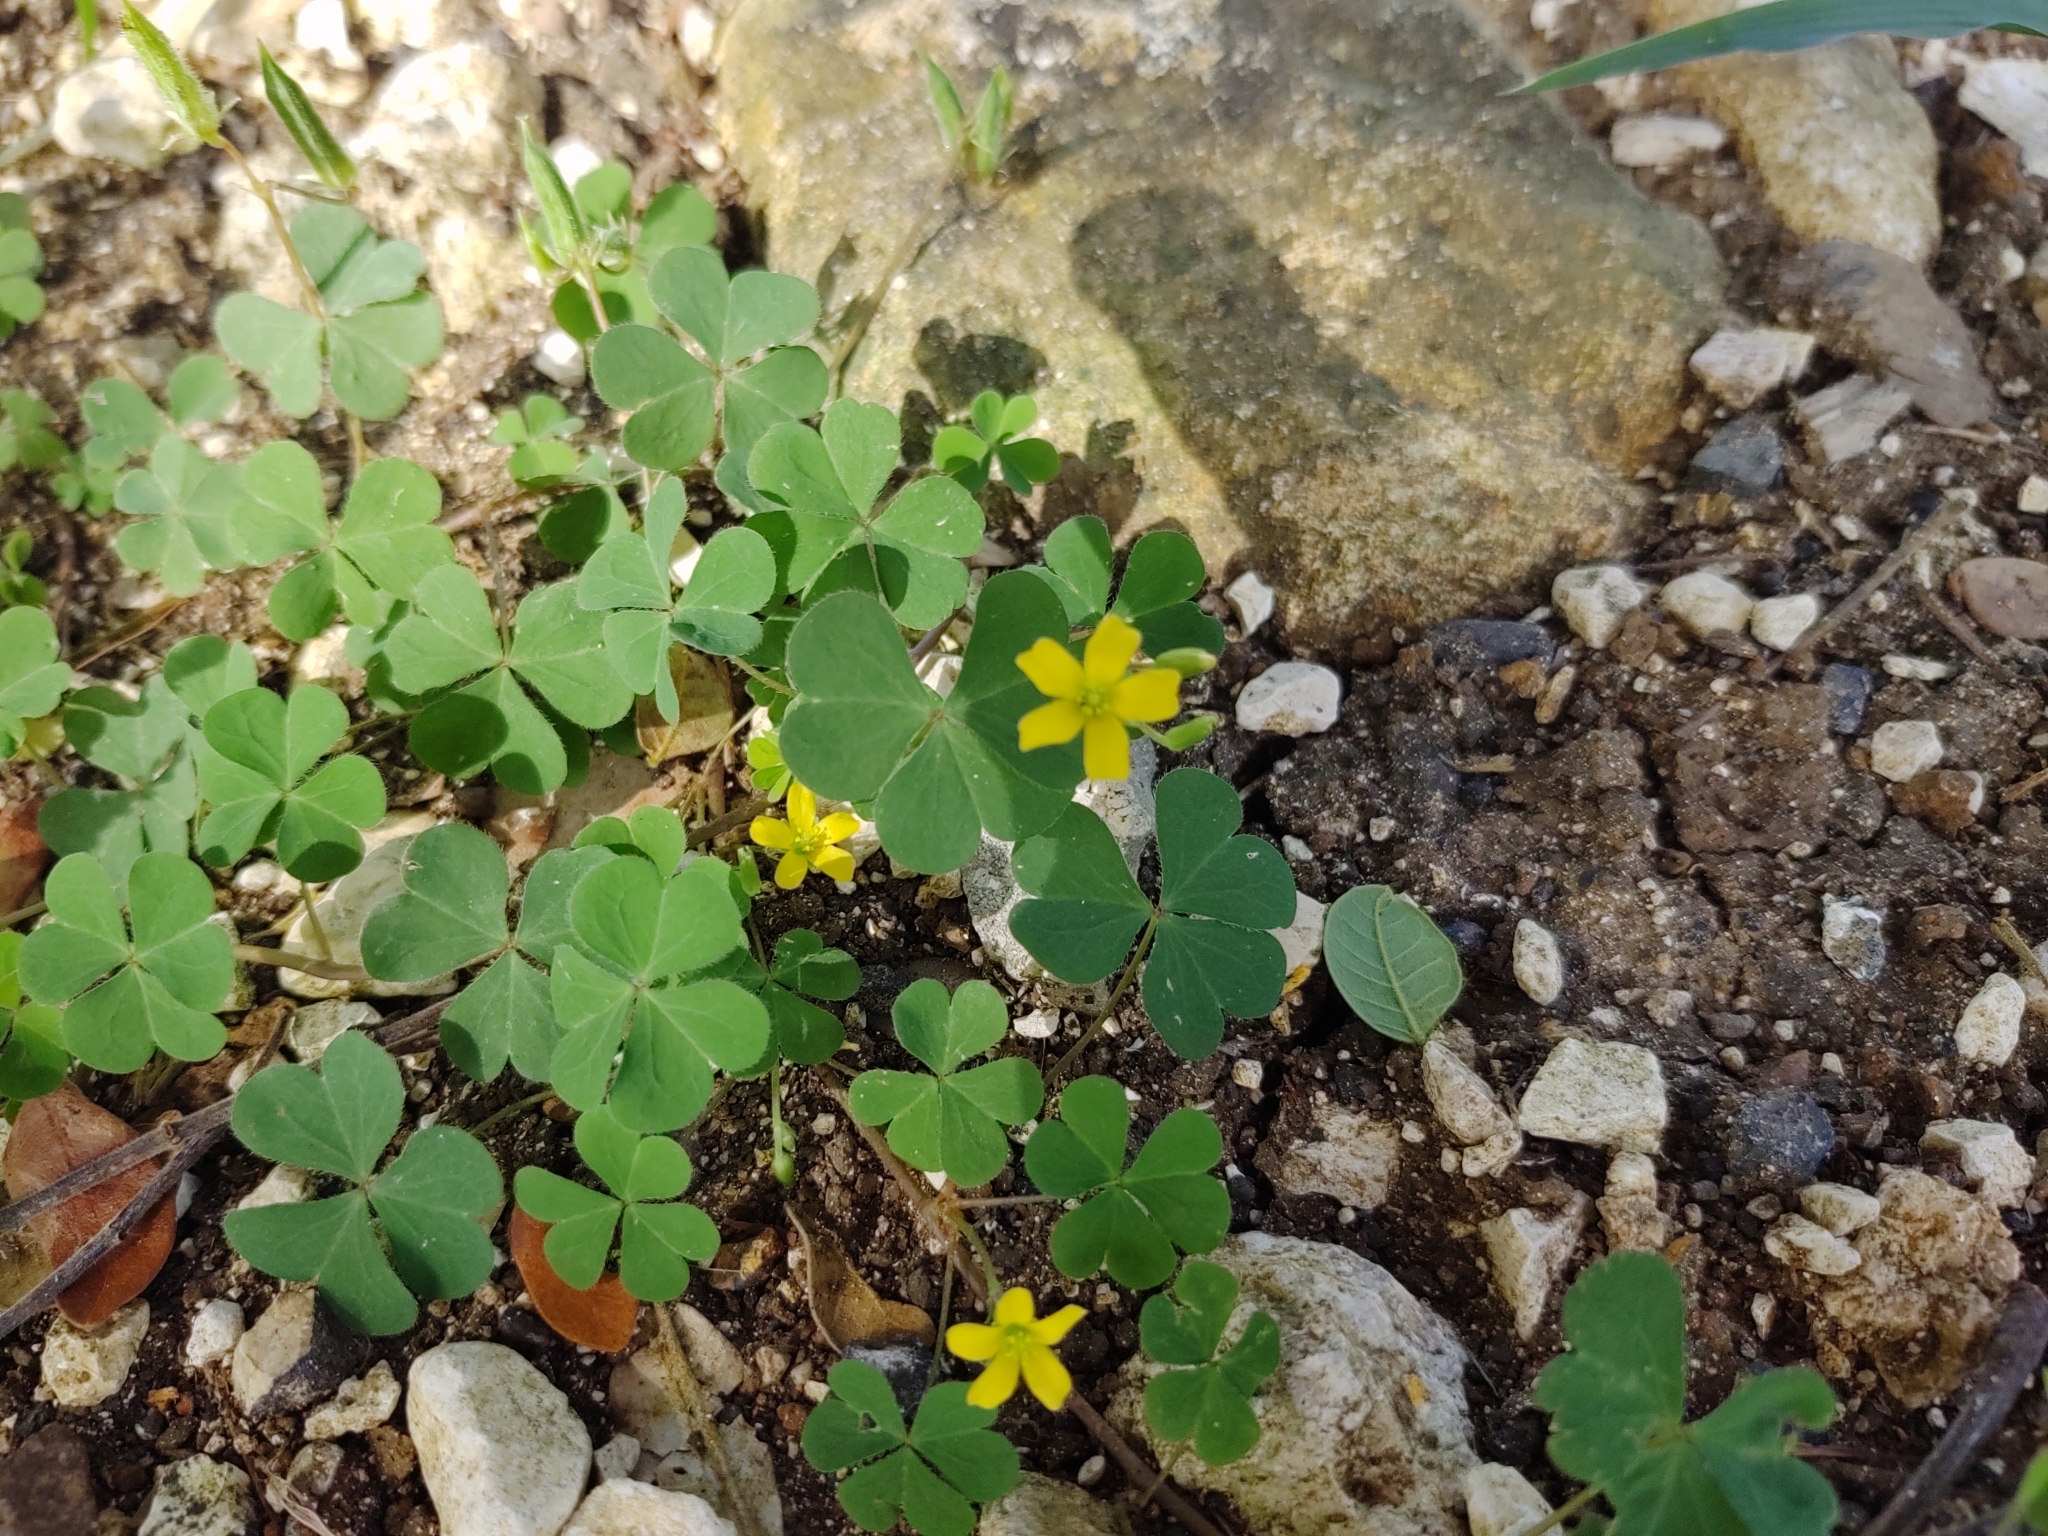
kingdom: Plantae
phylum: Tracheophyta
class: Magnoliopsida
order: Oxalidales
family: Oxalidaceae
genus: Oxalis
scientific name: Oxalis corniculata
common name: Procumbent yellow-sorrel
